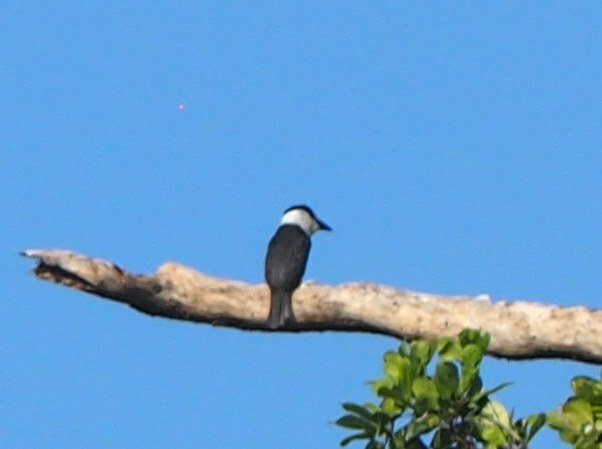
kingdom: Animalia
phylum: Chordata
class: Aves
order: Piciformes
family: Bucconidae
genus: Notharchus
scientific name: Notharchus hyperrhynchus
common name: White-necked puffbird
